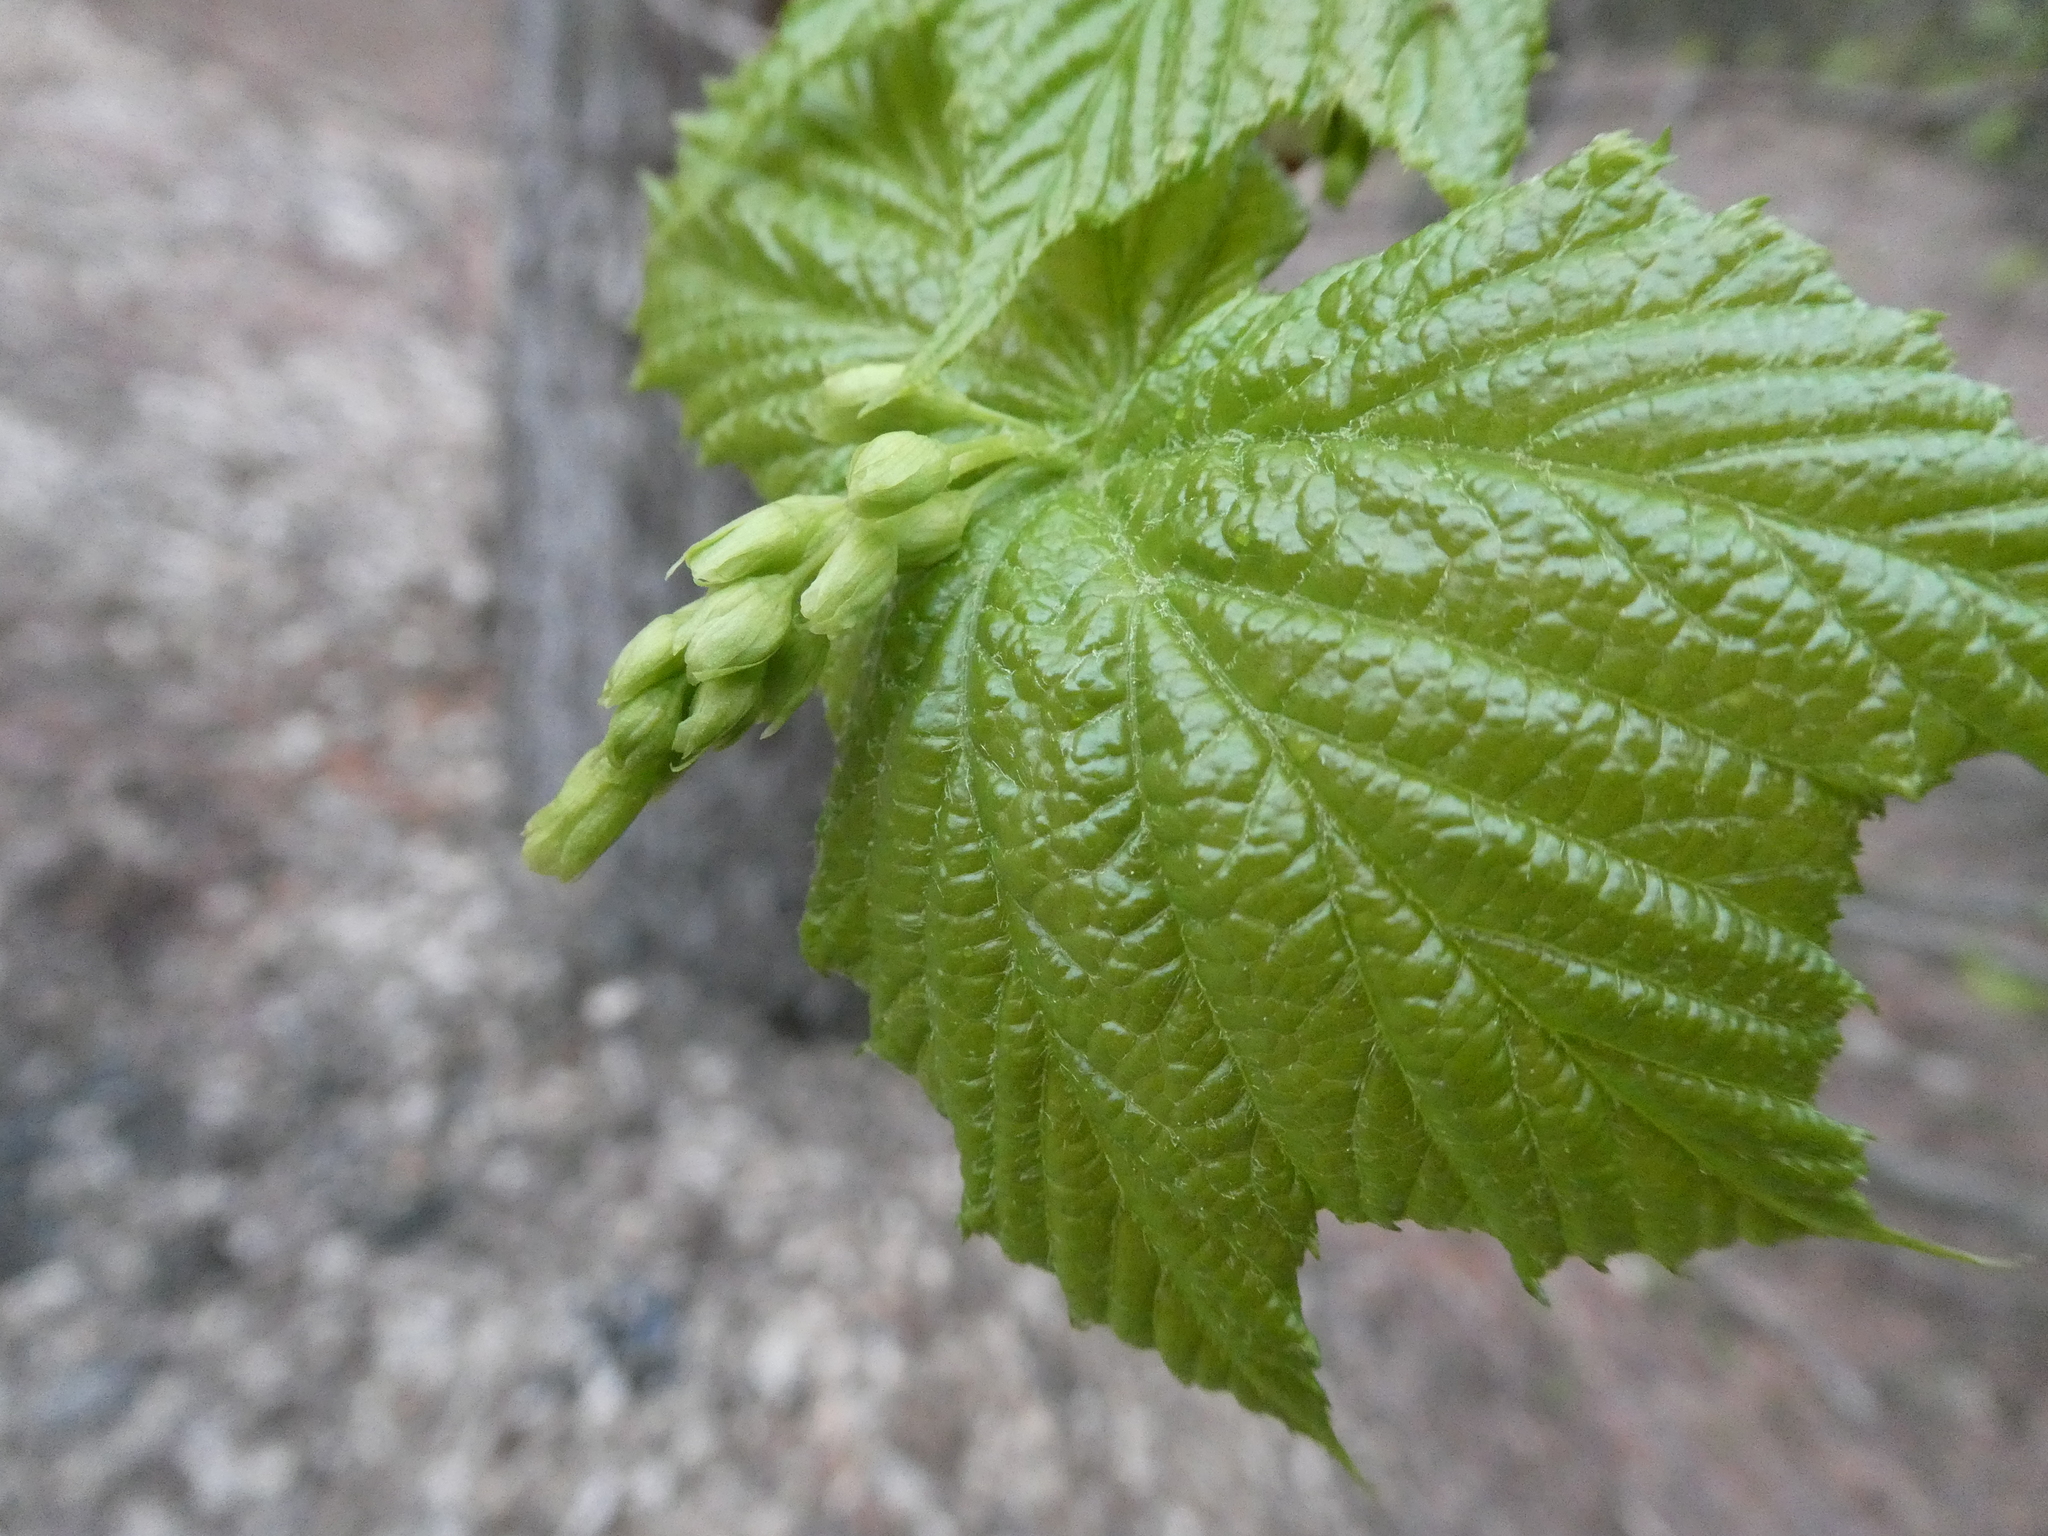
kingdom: Plantae
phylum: Tracheophyta
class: Magnoliopsida
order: Sapindales
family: Sapindaceae
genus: Acer
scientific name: Acer pensylvanicum
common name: Moosewood
